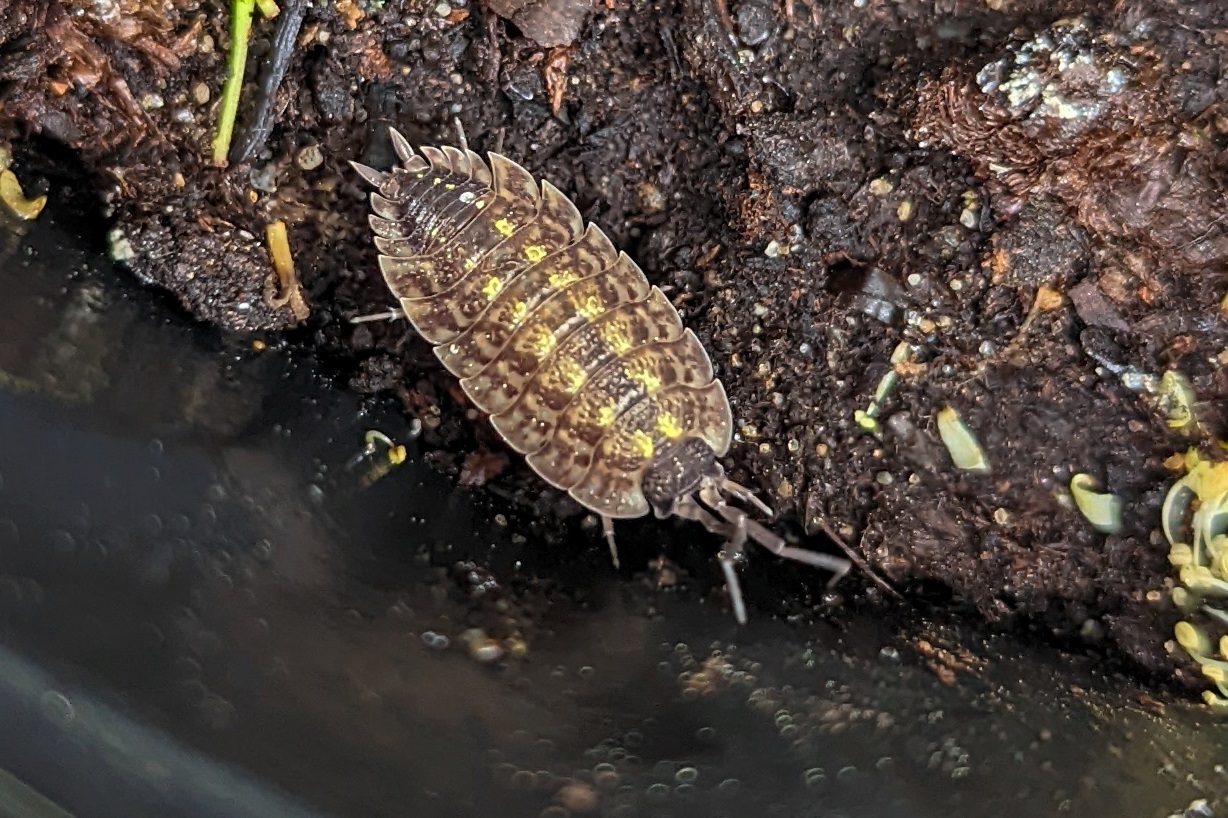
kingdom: Animalia
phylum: Arthropoda
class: Malacostraca
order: Isopoda
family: Porcellionidae
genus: Porcellio
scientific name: Porcellio spinicornis
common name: Painted woodlouse
